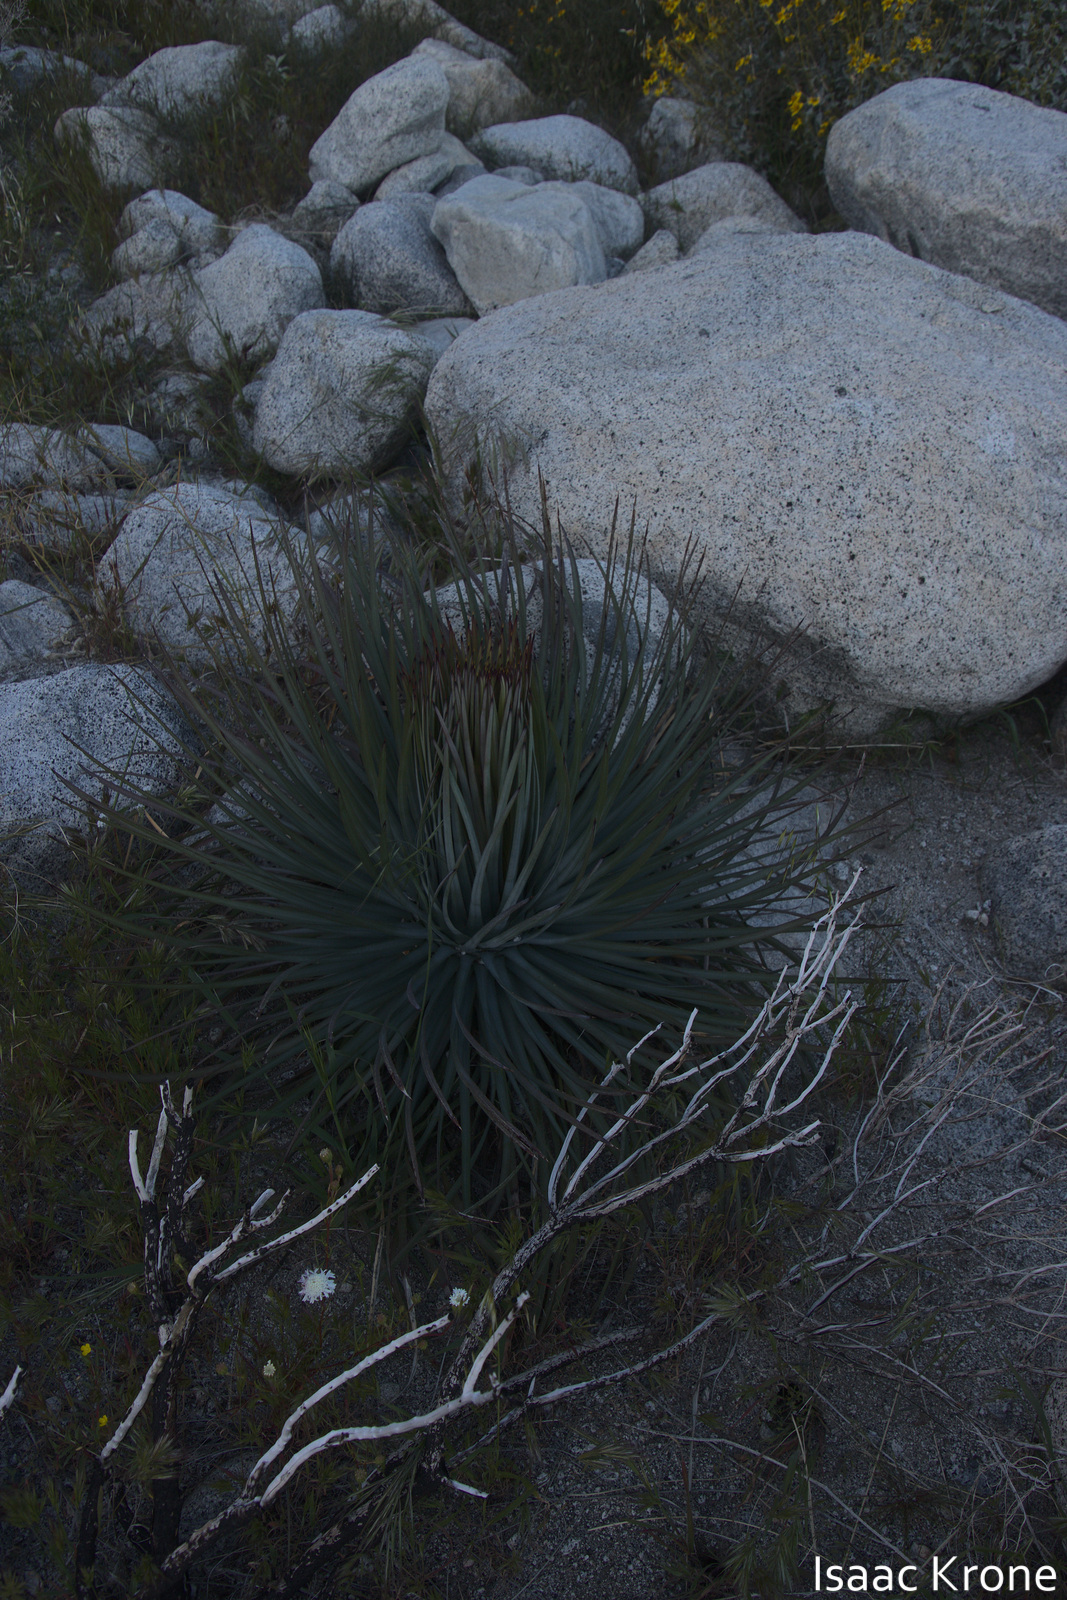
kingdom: Plantae
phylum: Tracheophyta
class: Liliopsida
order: Asparagales
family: Asparagaceae
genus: Hesperoyucca
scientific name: Hesperoyucca whipplei
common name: Our lord's-candle
